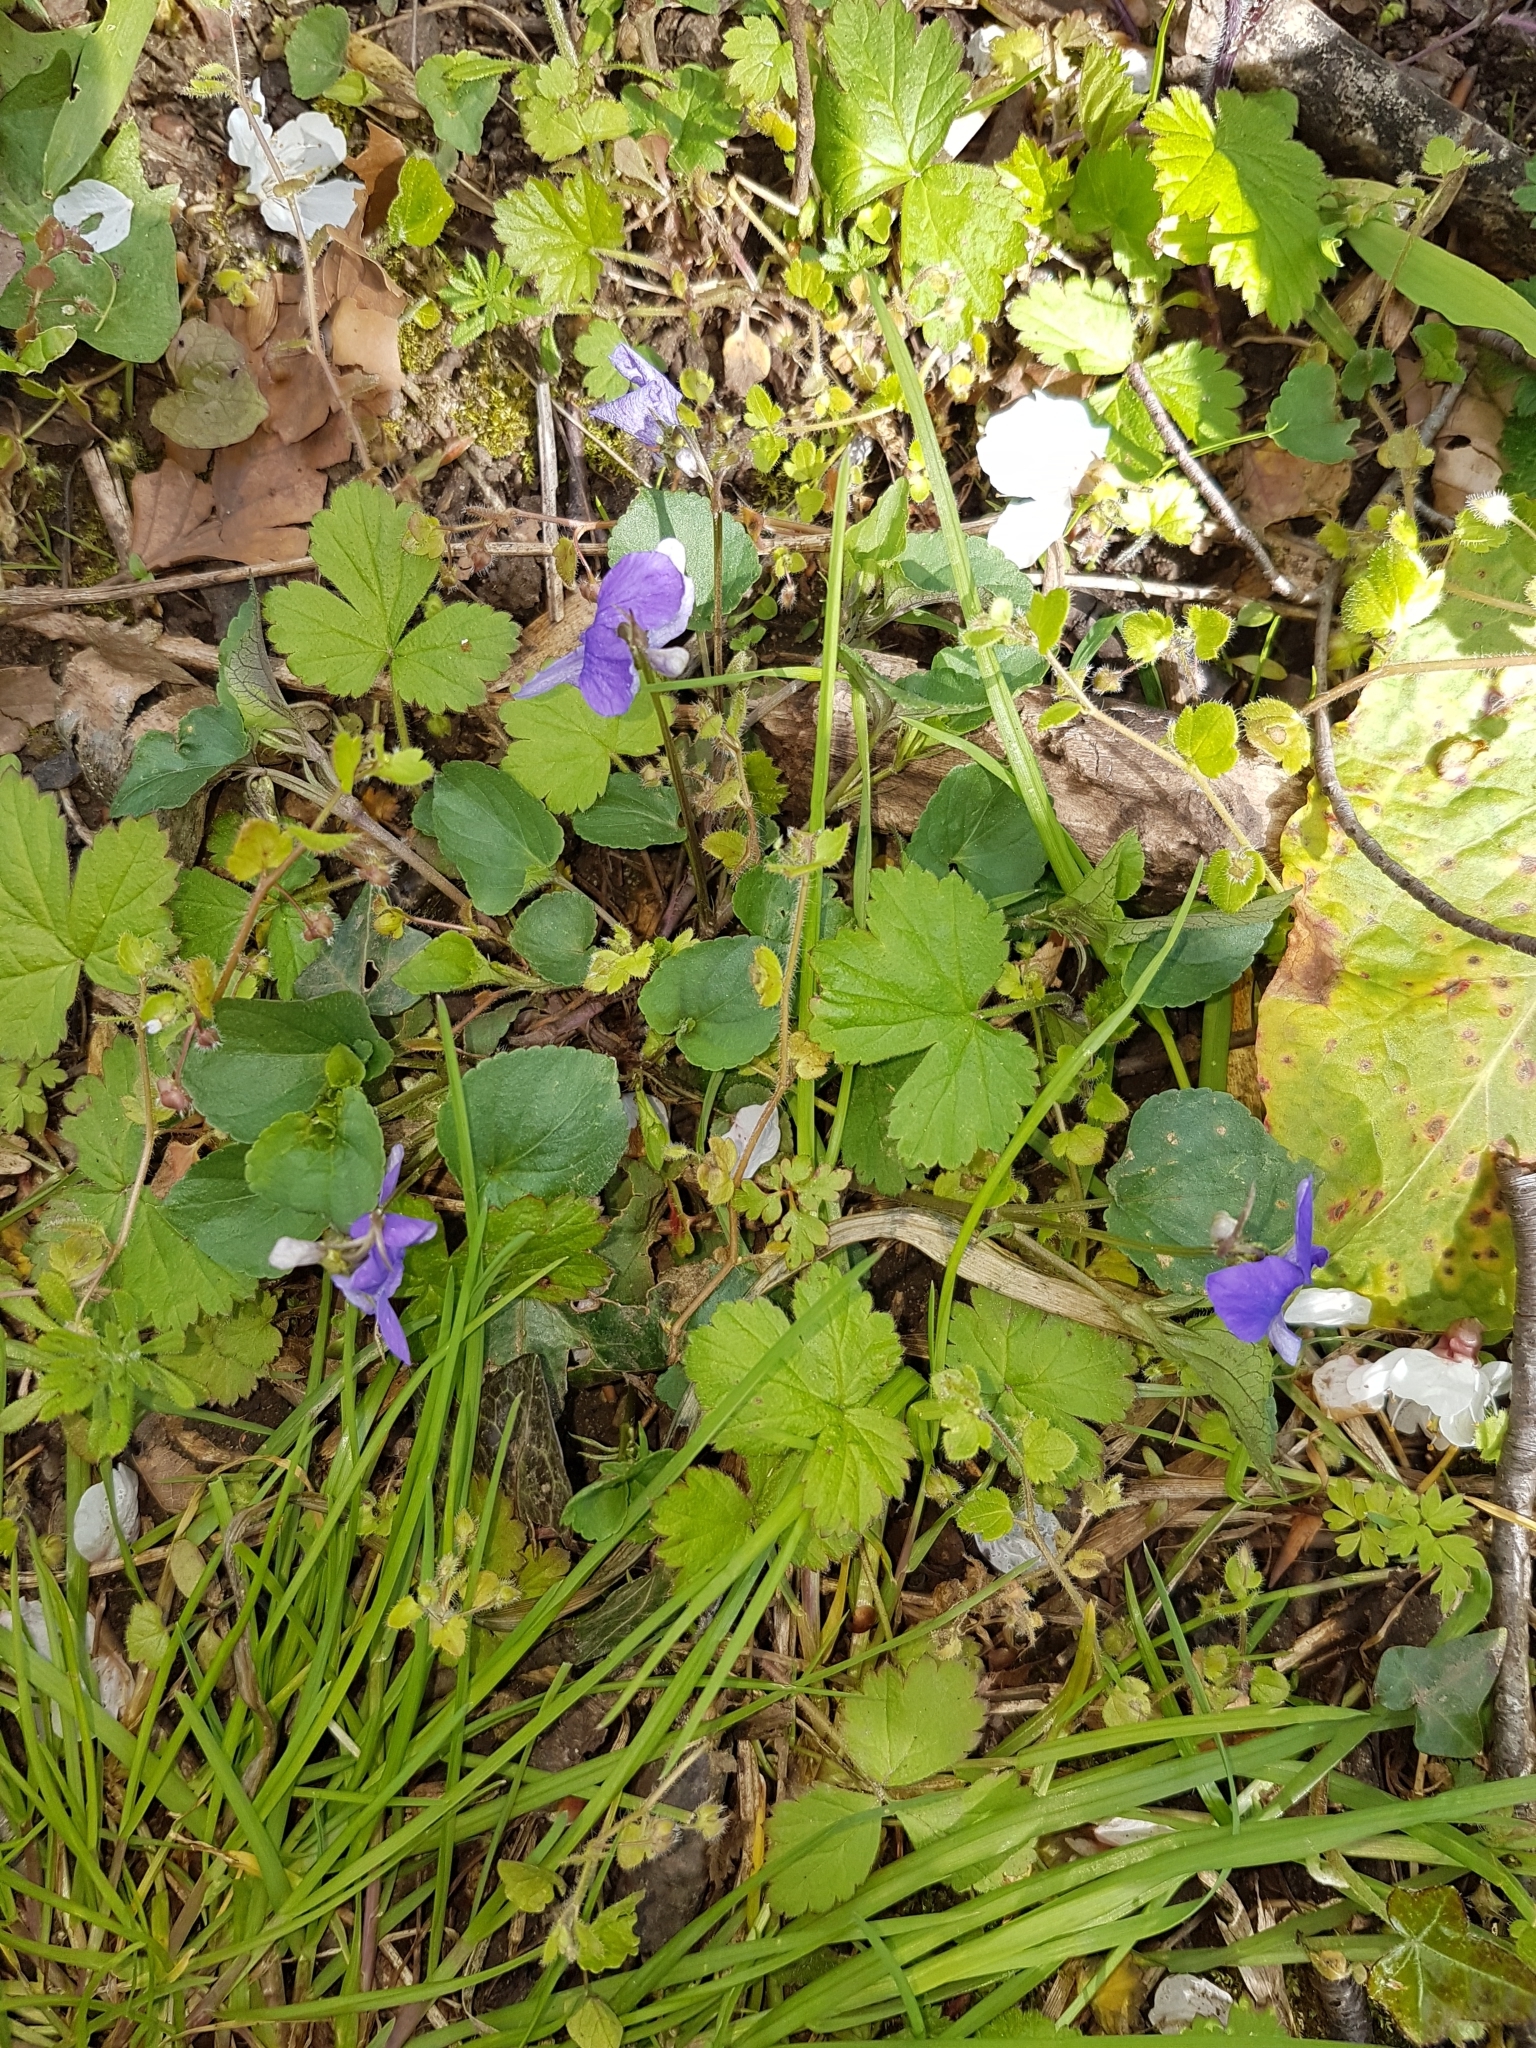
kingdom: Plantae
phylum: Tracheophyta
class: Magnoliopsida
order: Malpighiales
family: Violaceae
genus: Viola
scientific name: Viola riviniana
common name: Common dog-violet
